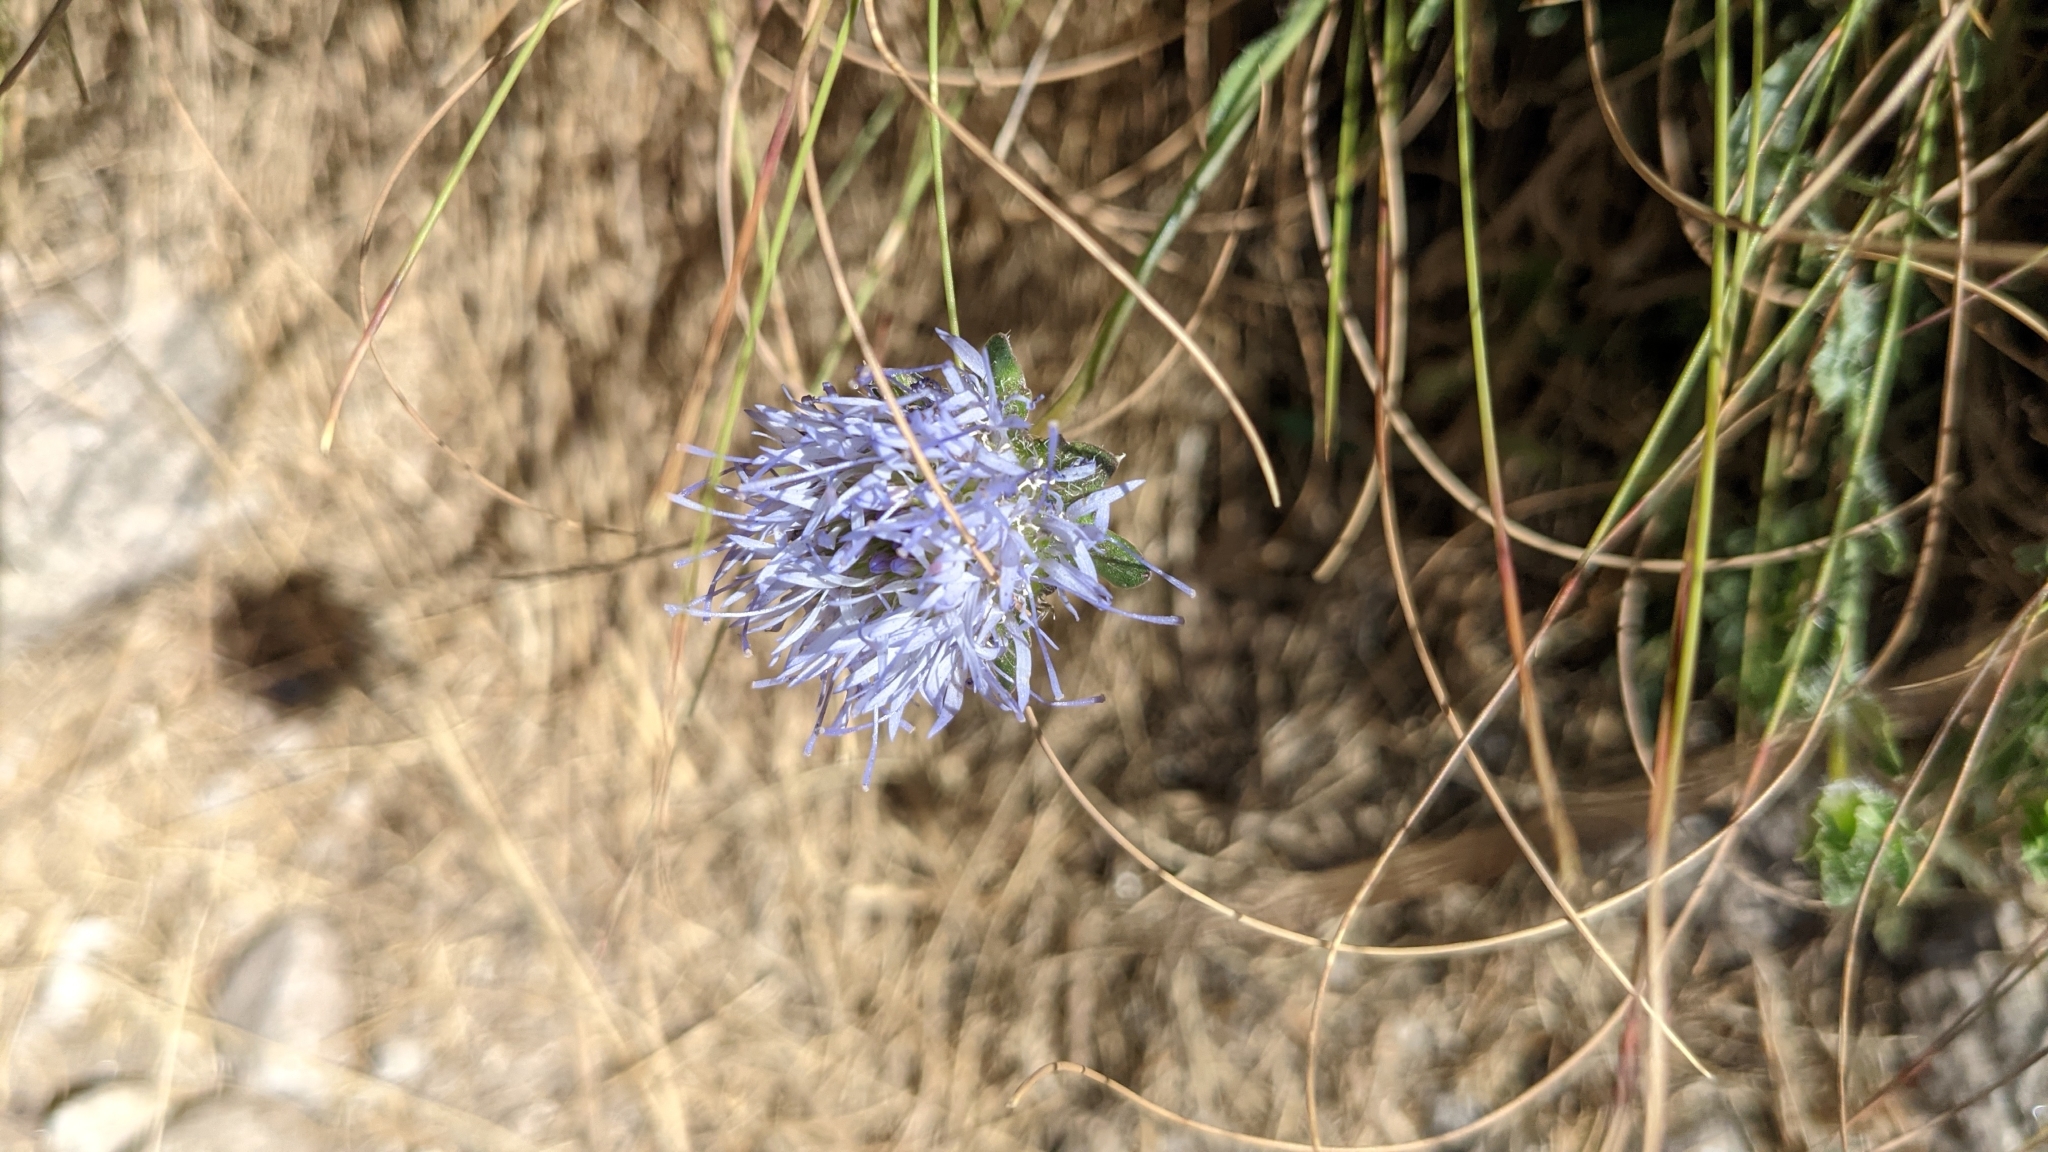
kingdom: Plantae
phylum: Tracheophyta
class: Magnoliopsida
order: Asterales
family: Campanulaceae
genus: Jasione
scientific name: Jasione sessiliflora
